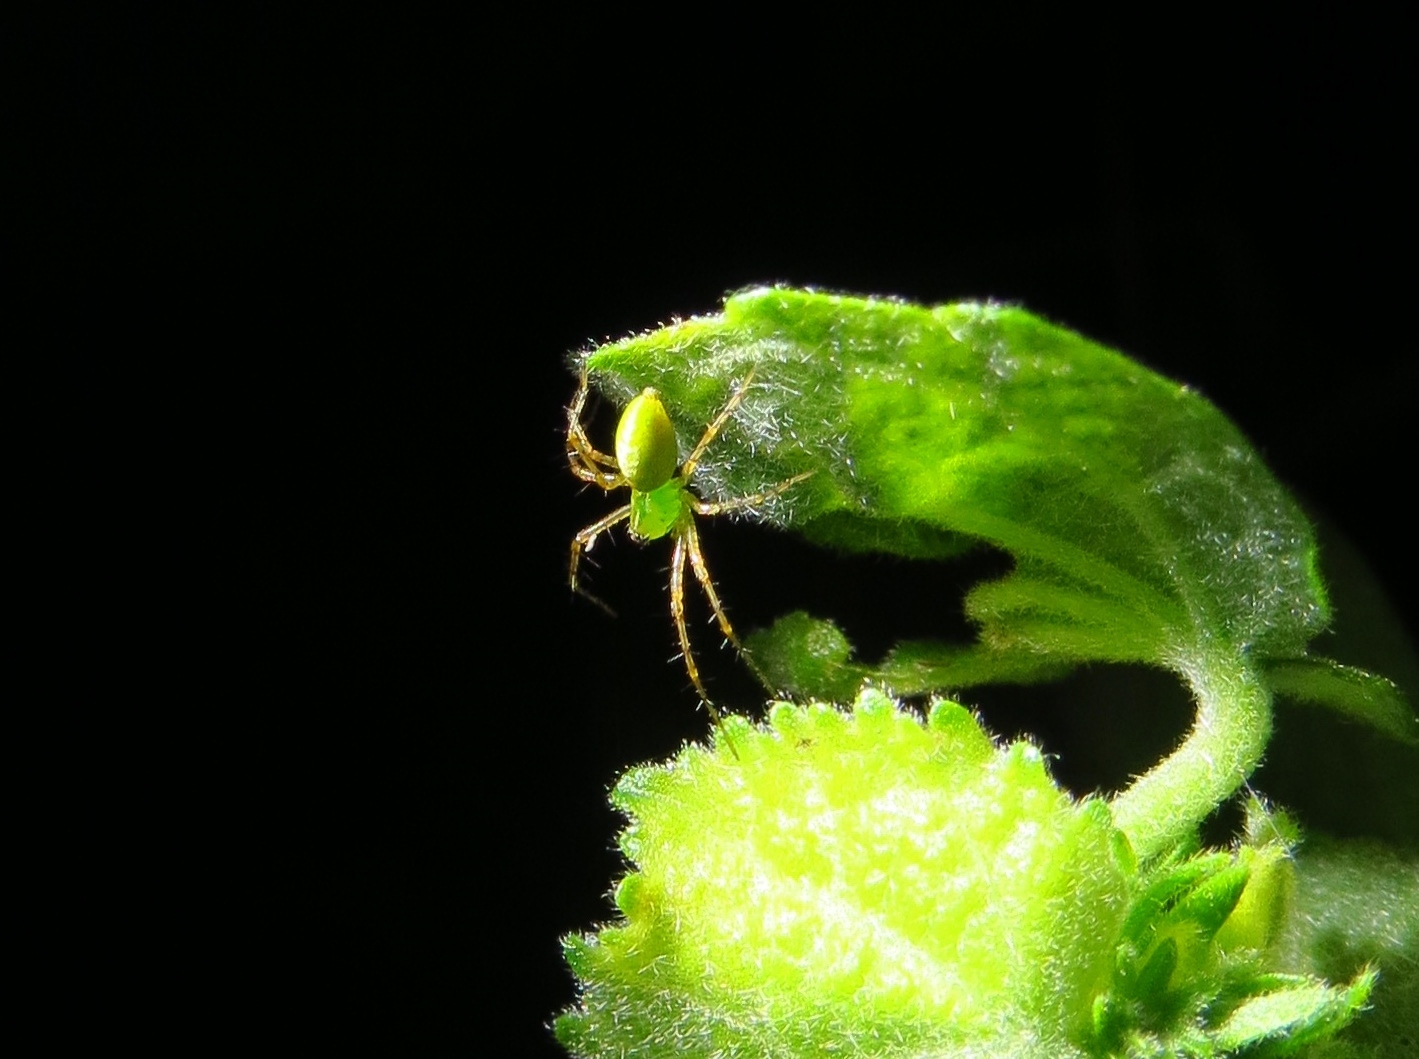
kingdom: Animalia
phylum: Arthropoda
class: Arachnida
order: Araneae
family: Oxyopidae
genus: Peucetia
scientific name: Peucetia viridans
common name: Lynx spiders
